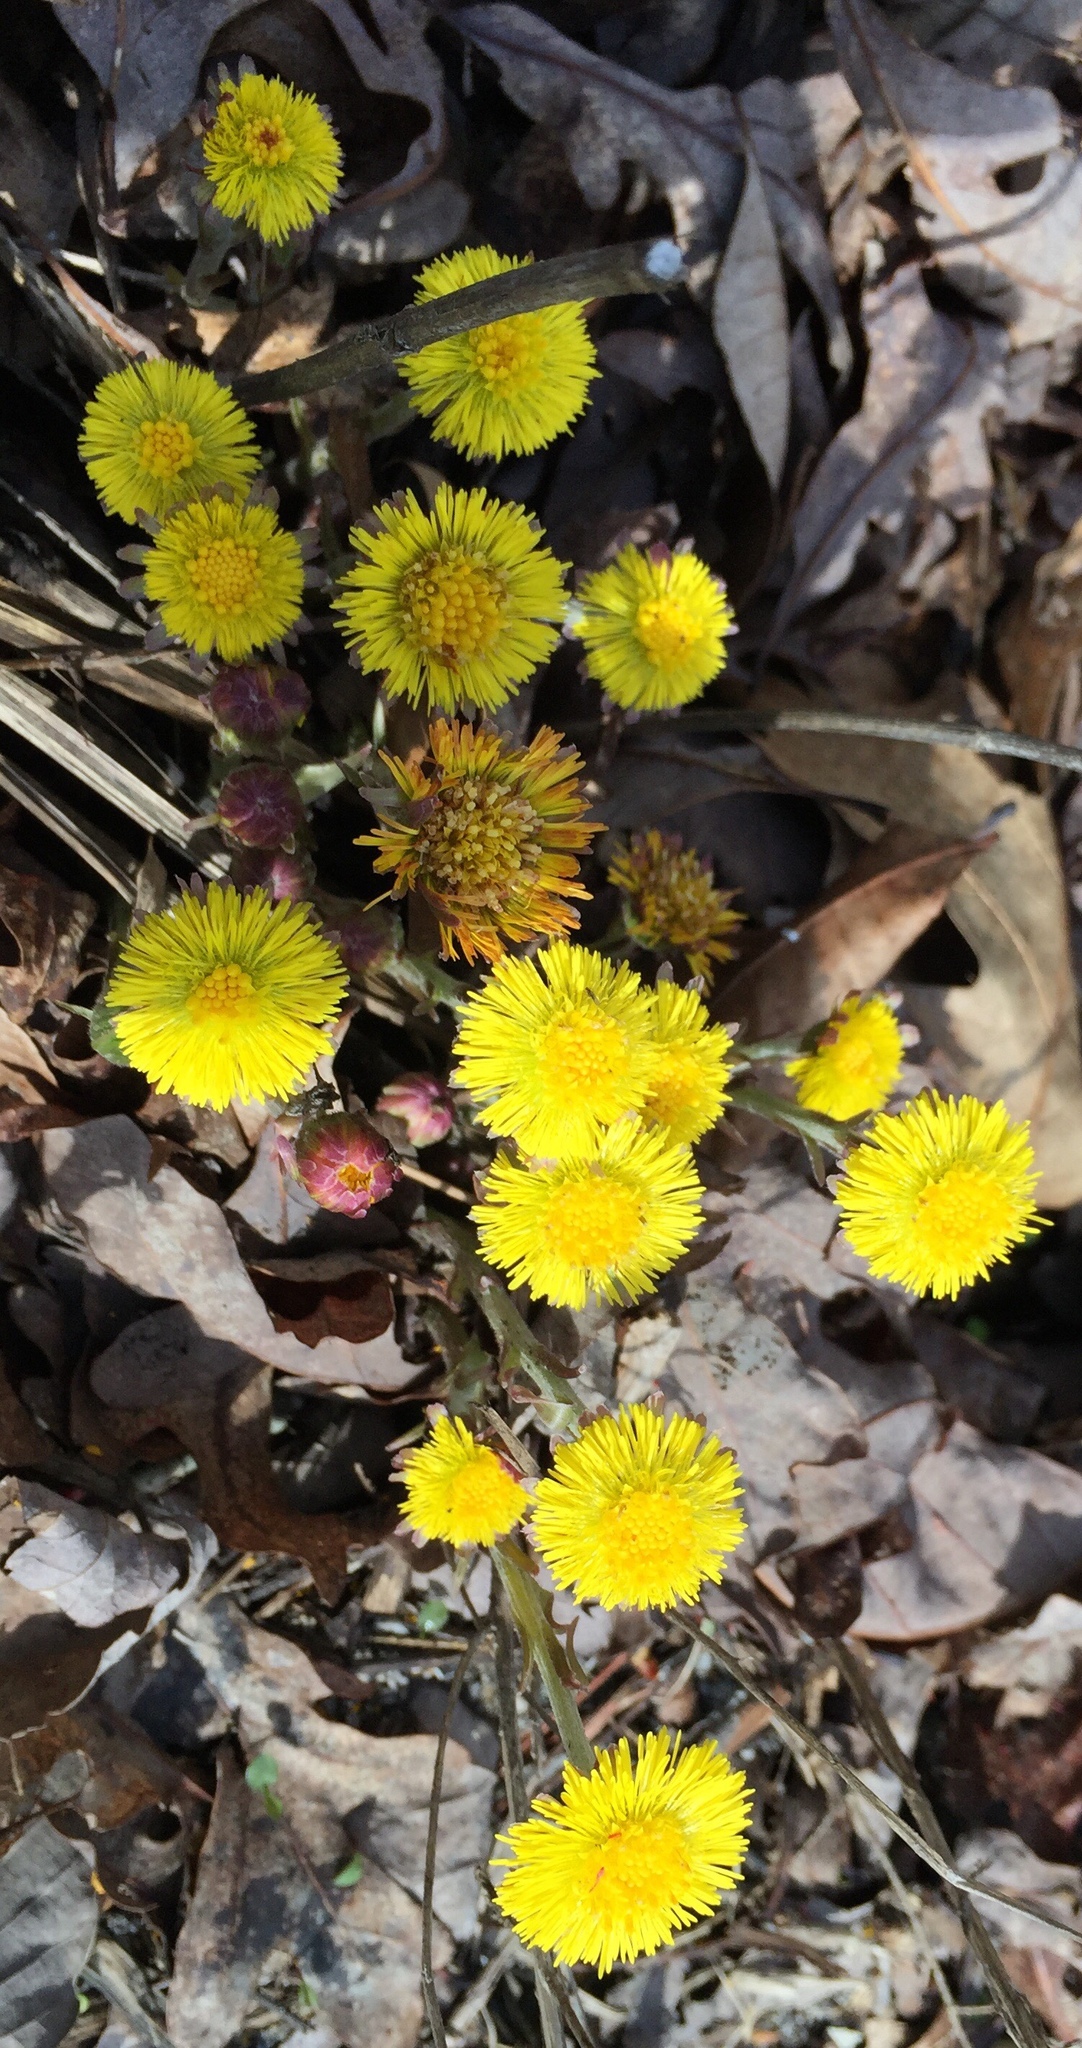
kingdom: Plantae
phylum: Tracheophyta
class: Magnoliopsida
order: Asterales
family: Asteraceae
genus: Tussilago
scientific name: Tussilago farfara
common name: Coltsfoot
